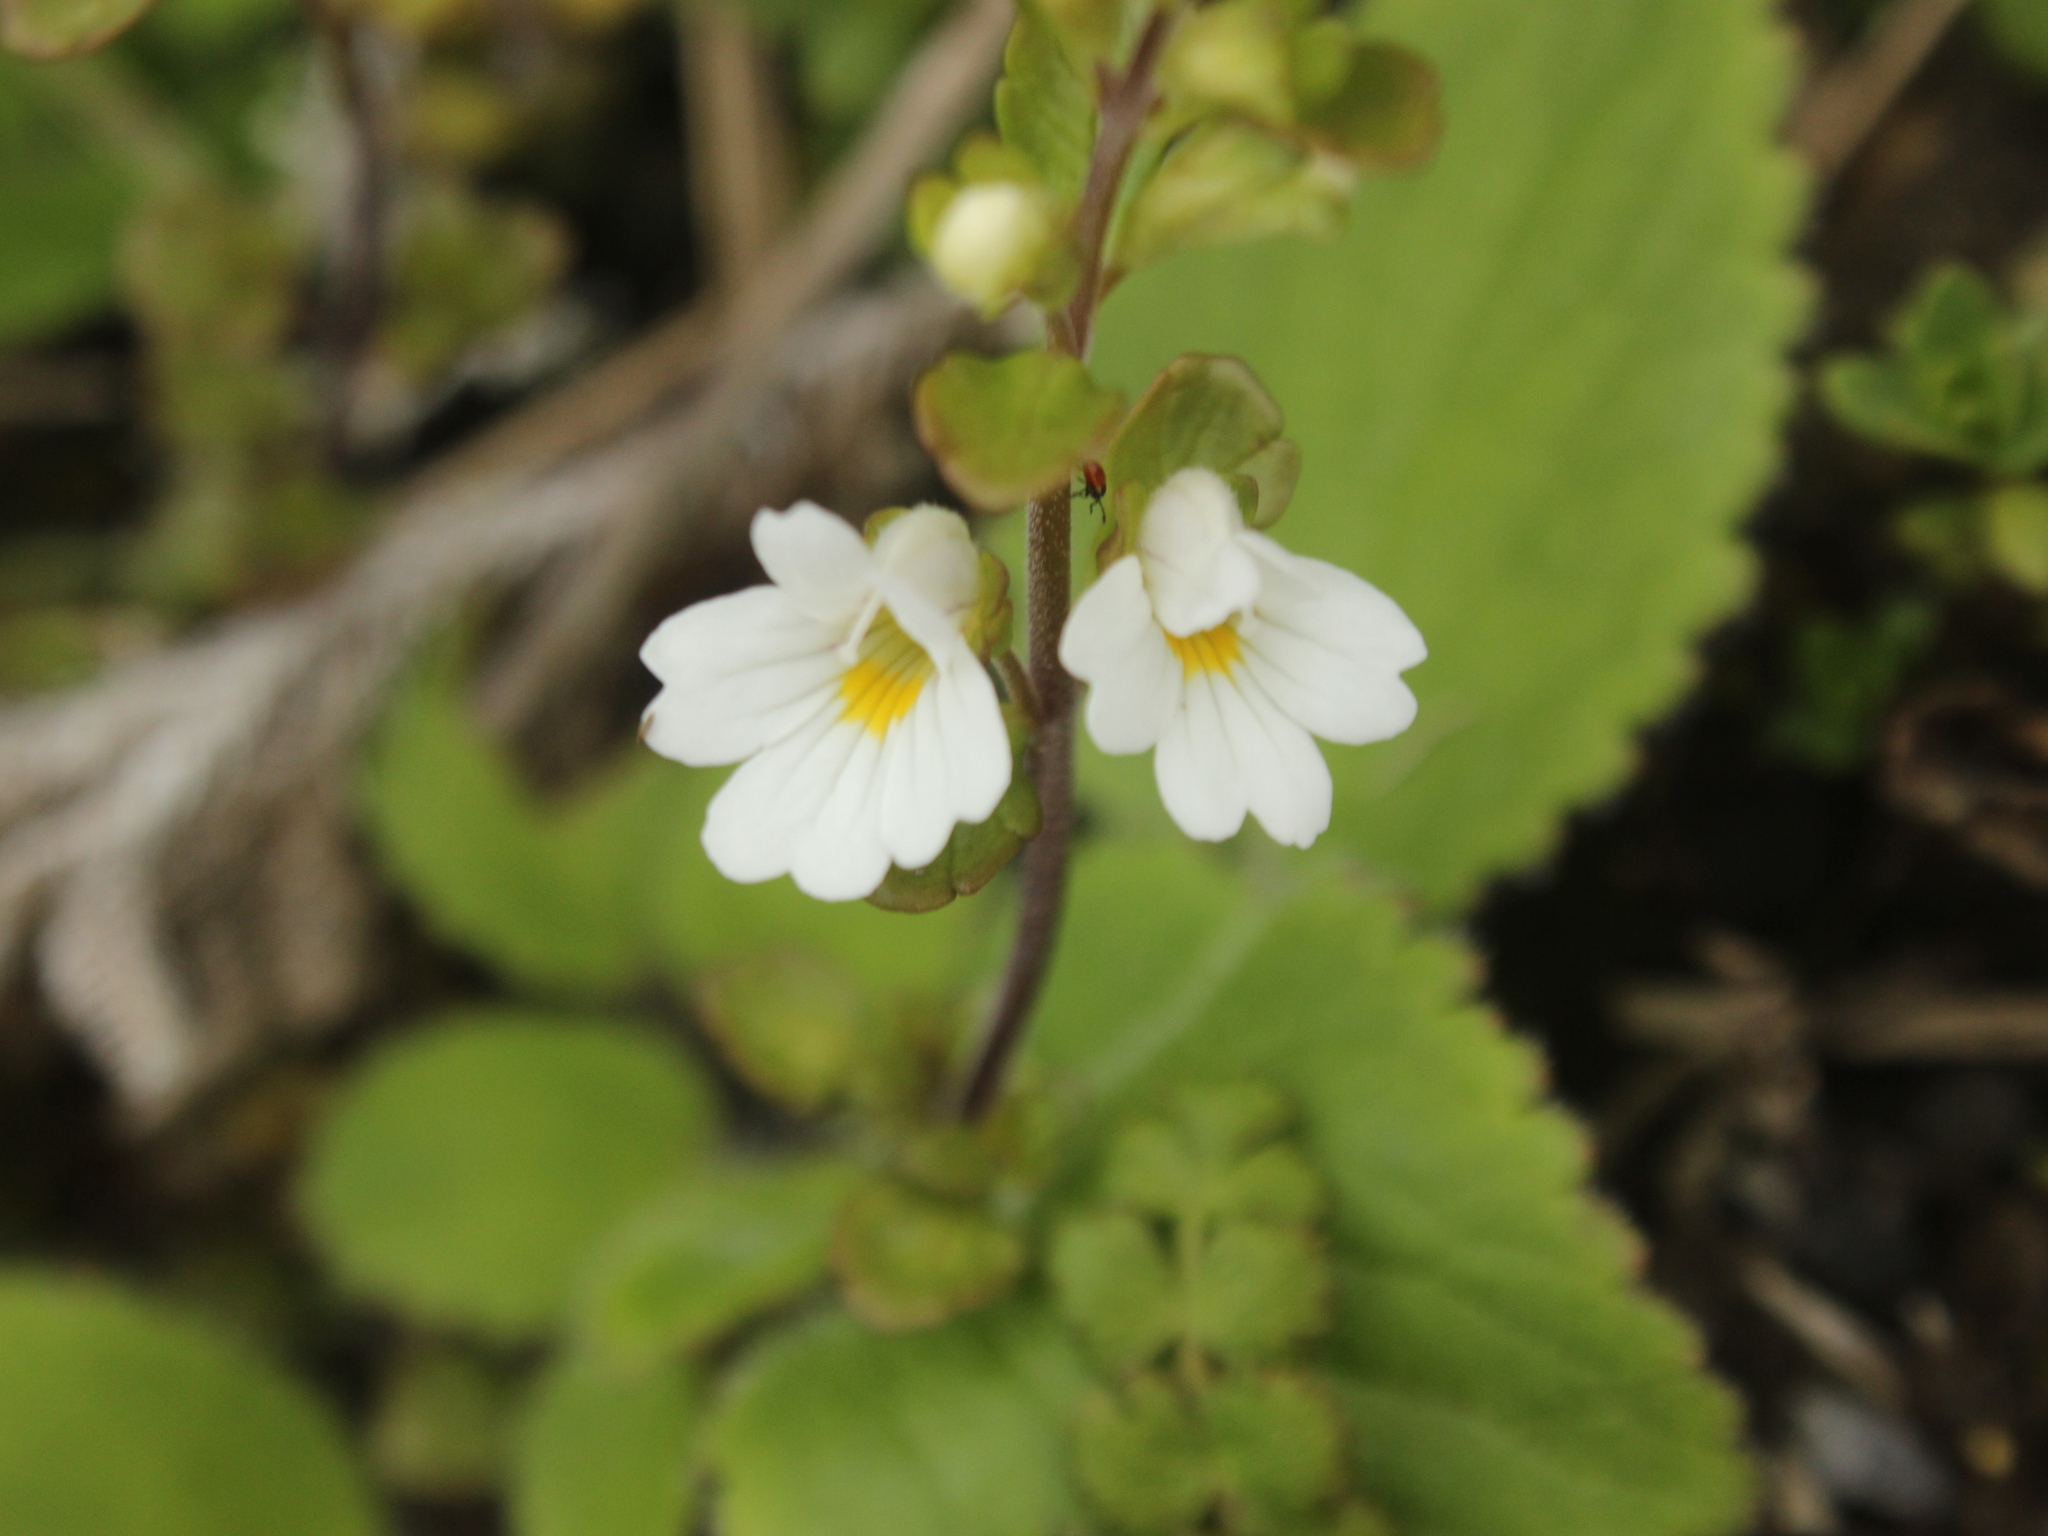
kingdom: Plantae
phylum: Tracheophyta
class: Magnoliopsida
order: Lamiales
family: Orobanchaceae
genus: Euphrasia
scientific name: Euphrasia cuneata
